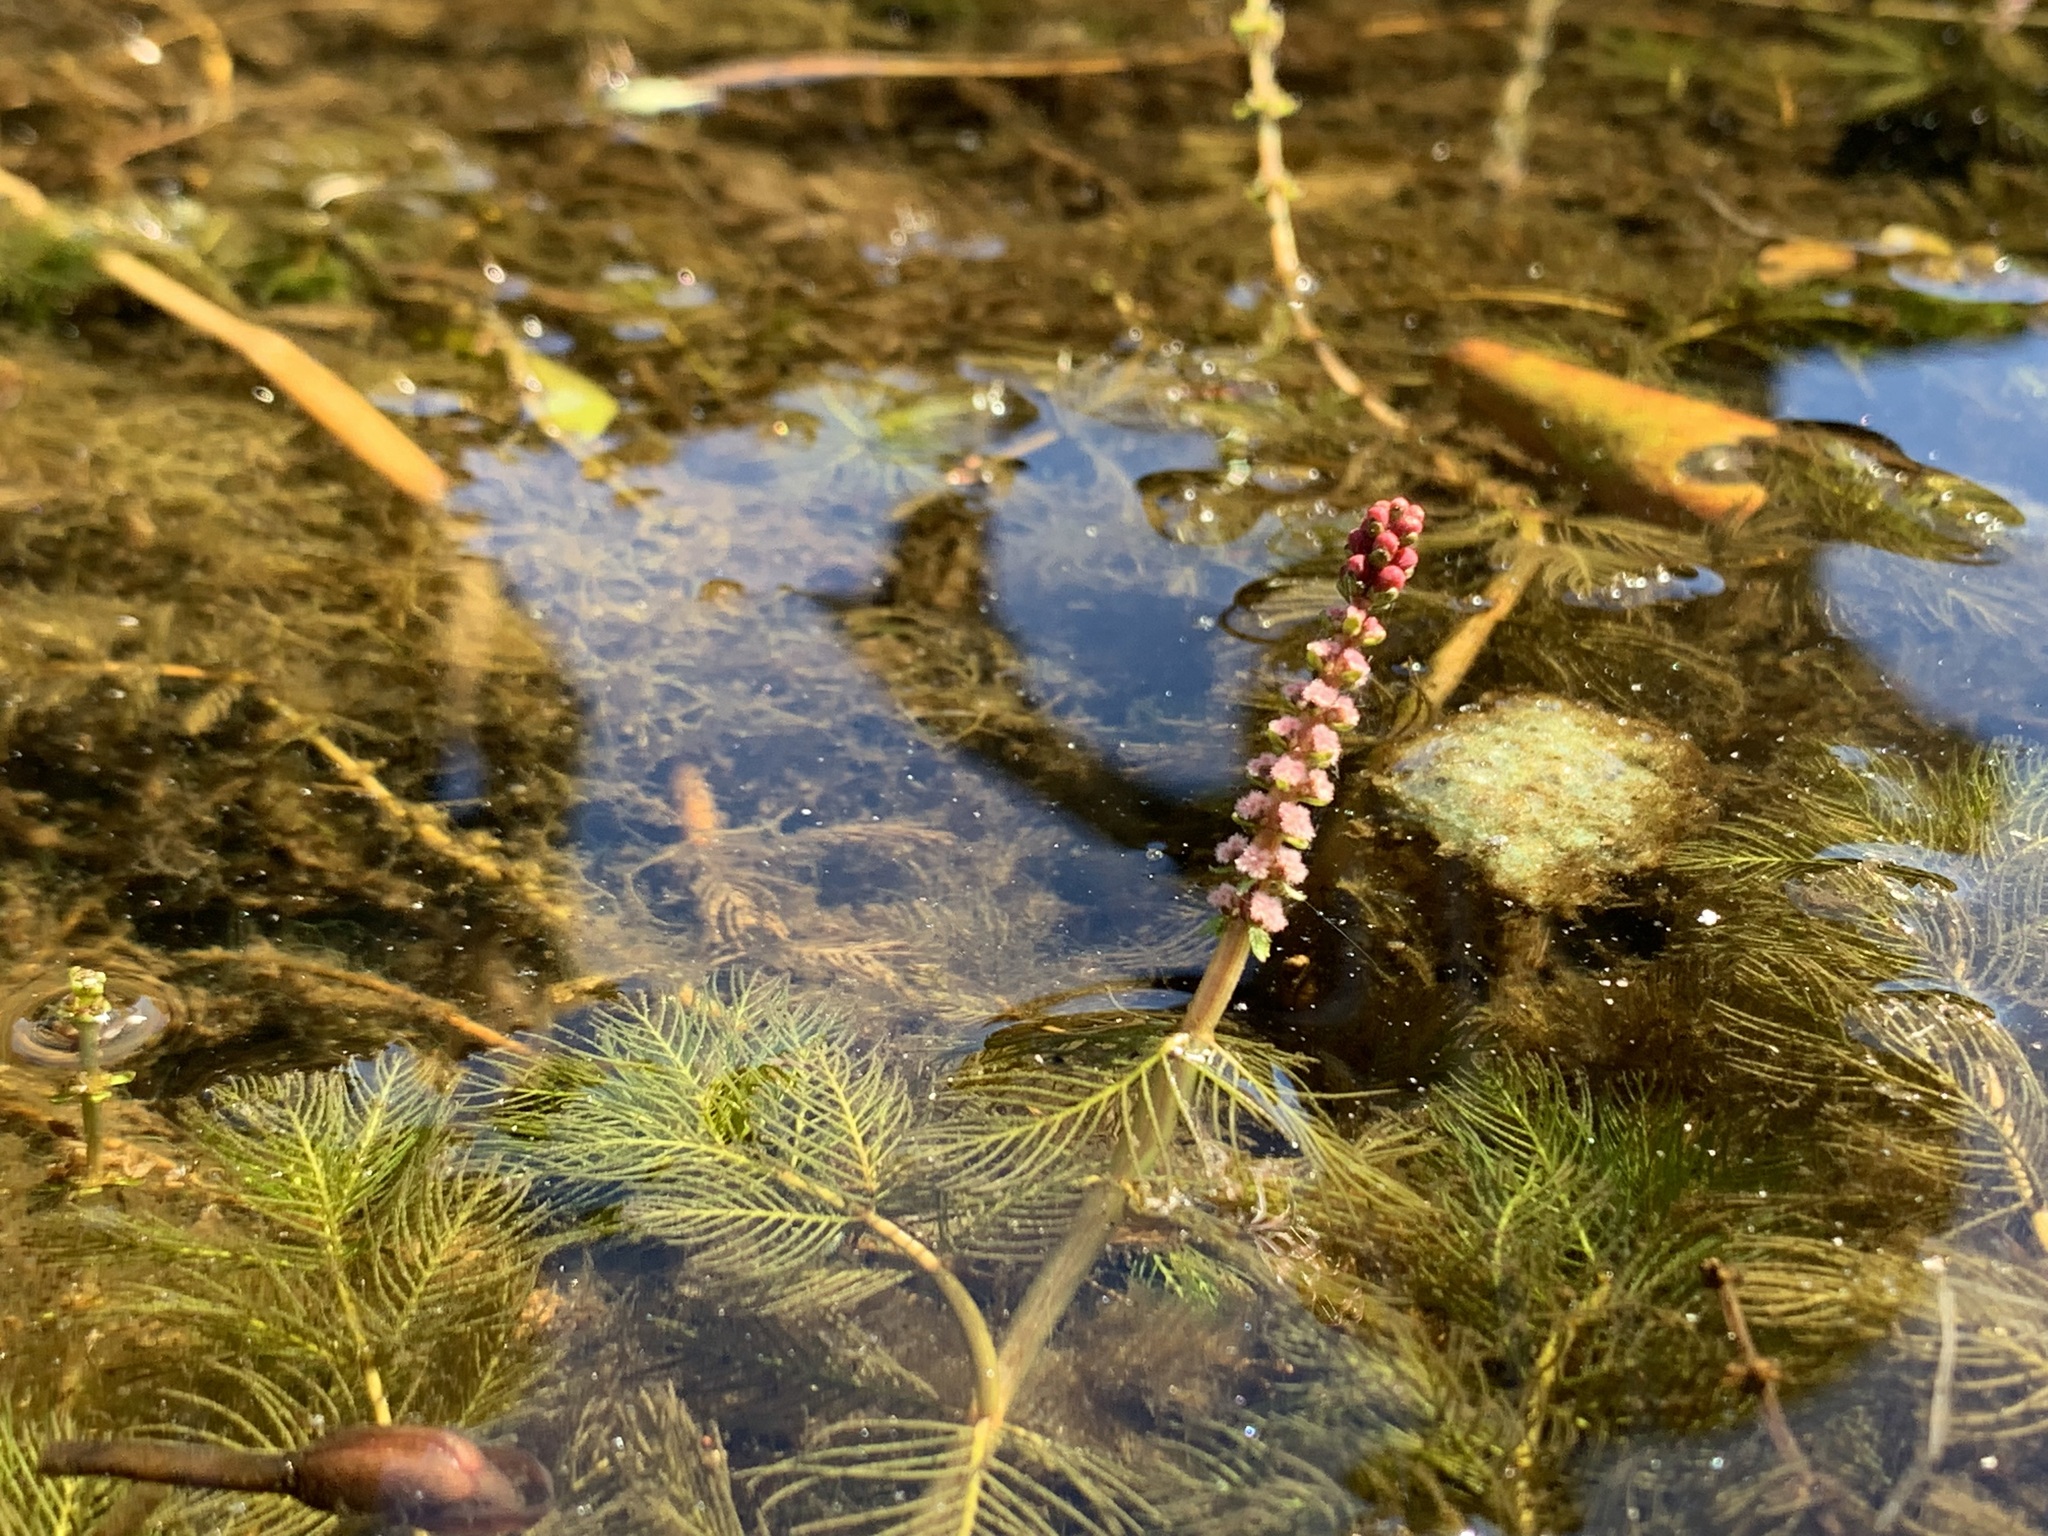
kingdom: Plantae
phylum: Tracheophyta
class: Magnoliopsida
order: Saxifragales
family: Haloragaceae
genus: Myriophyllum
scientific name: Myriophyllum spicatum
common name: Spiked water-milfoil
